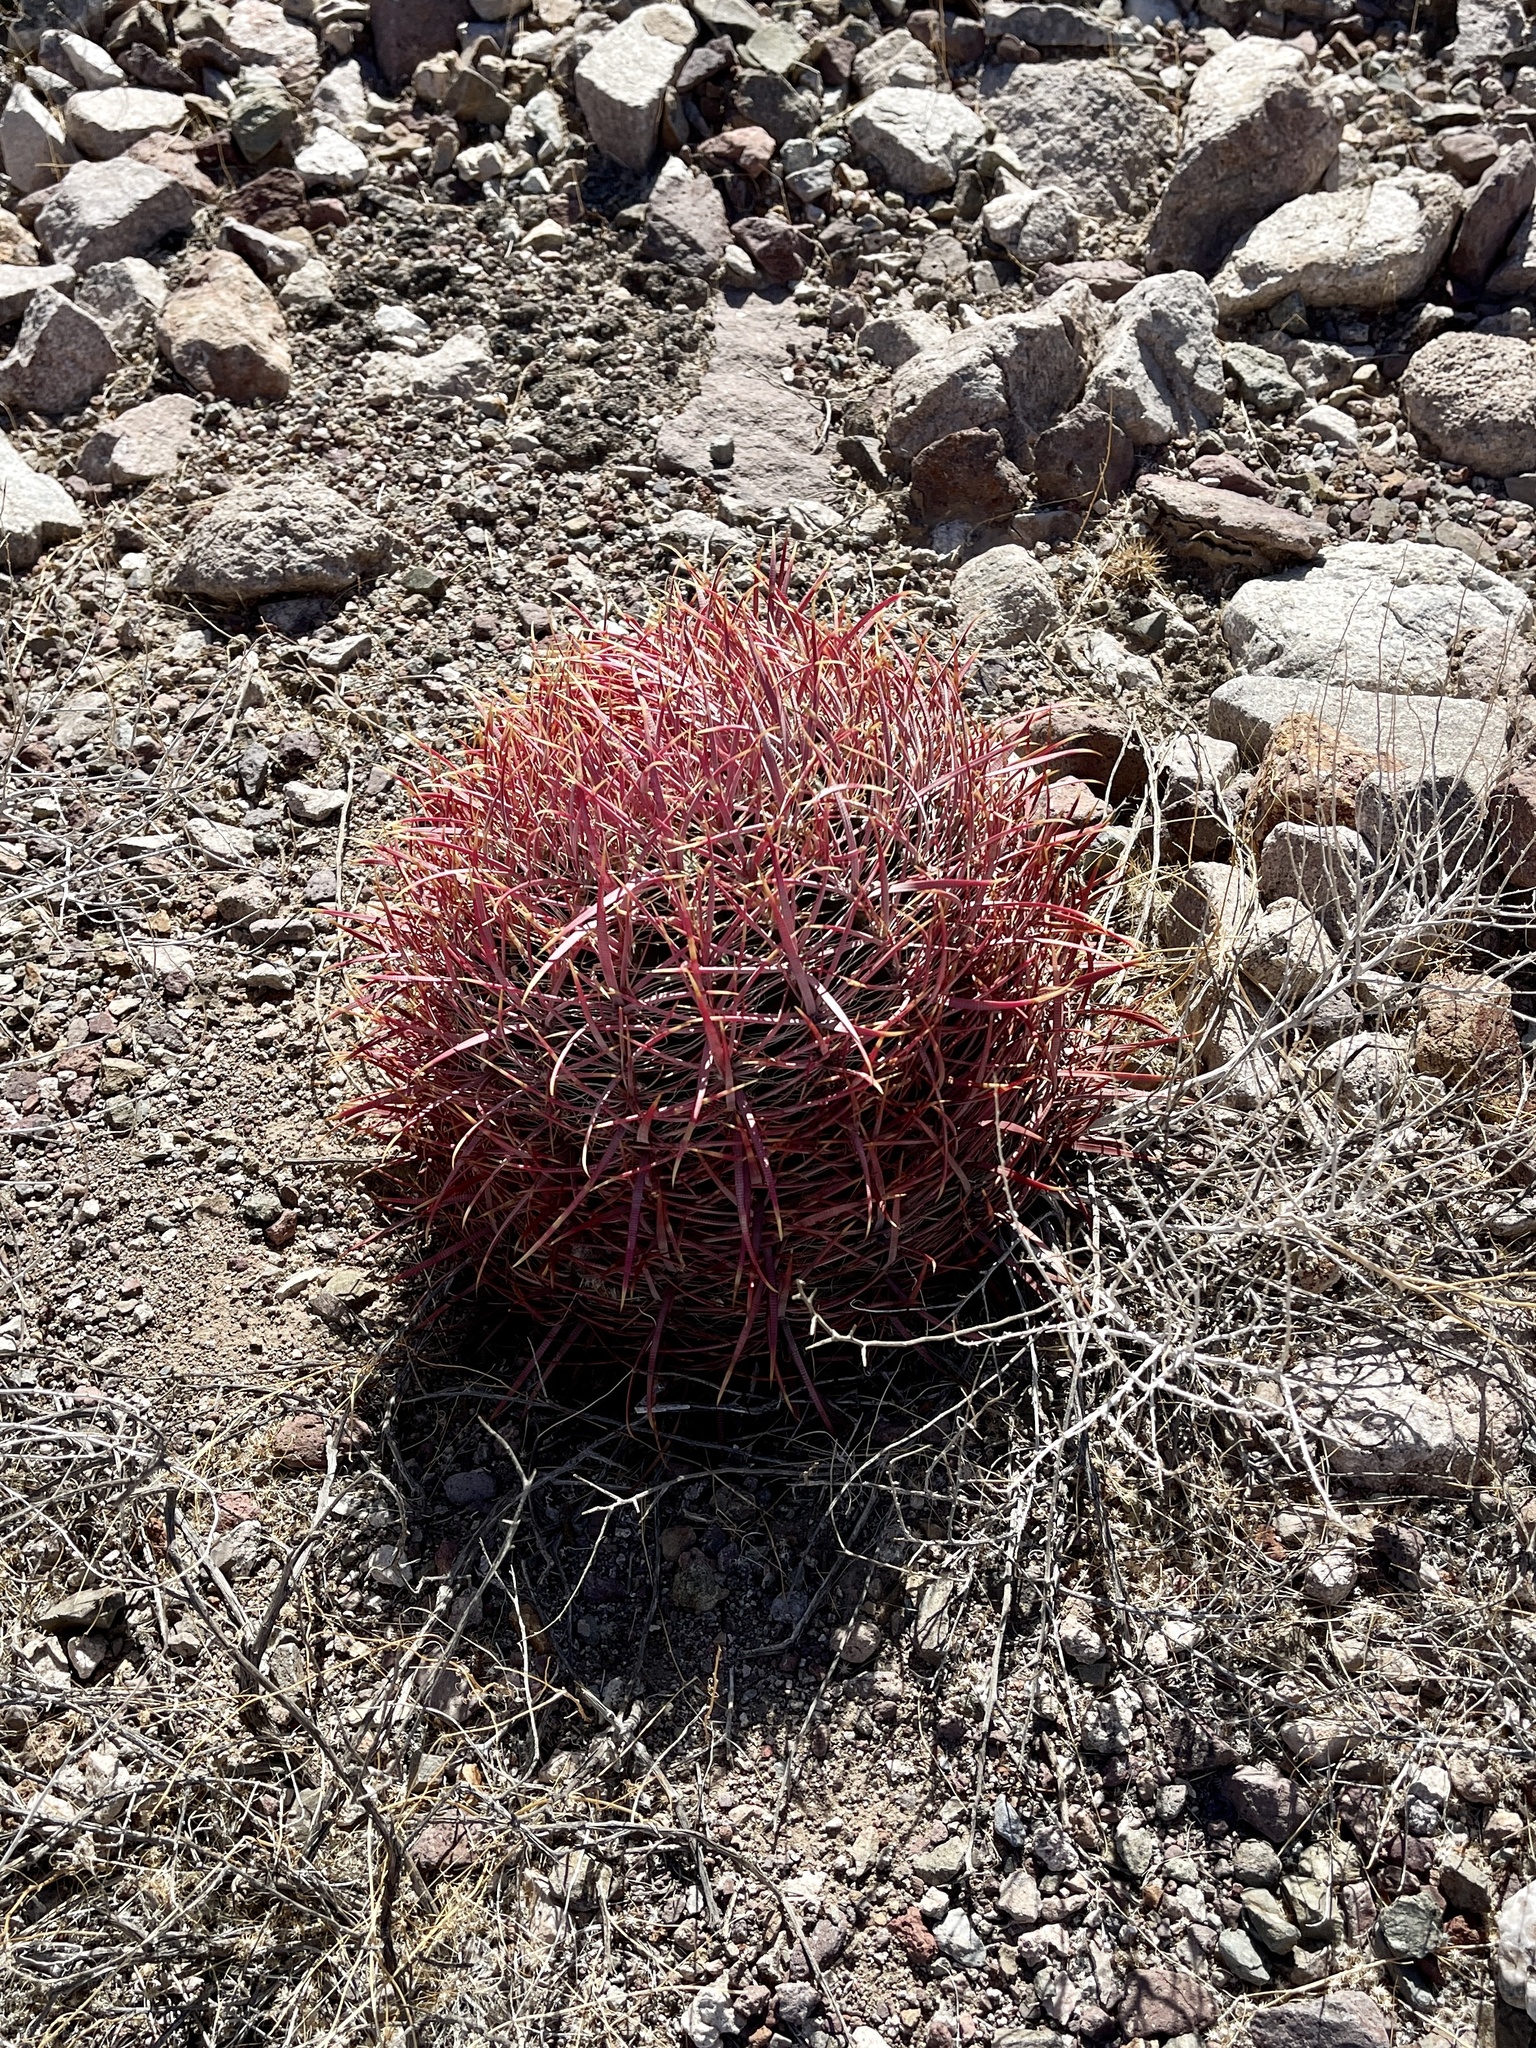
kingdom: Plantae
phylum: Tracheophyta
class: Magnoliopsida
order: Caryophyllales
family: Cactaceae
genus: Ferocactus
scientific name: Ferocactus cylindraceus
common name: California barrel cactus
